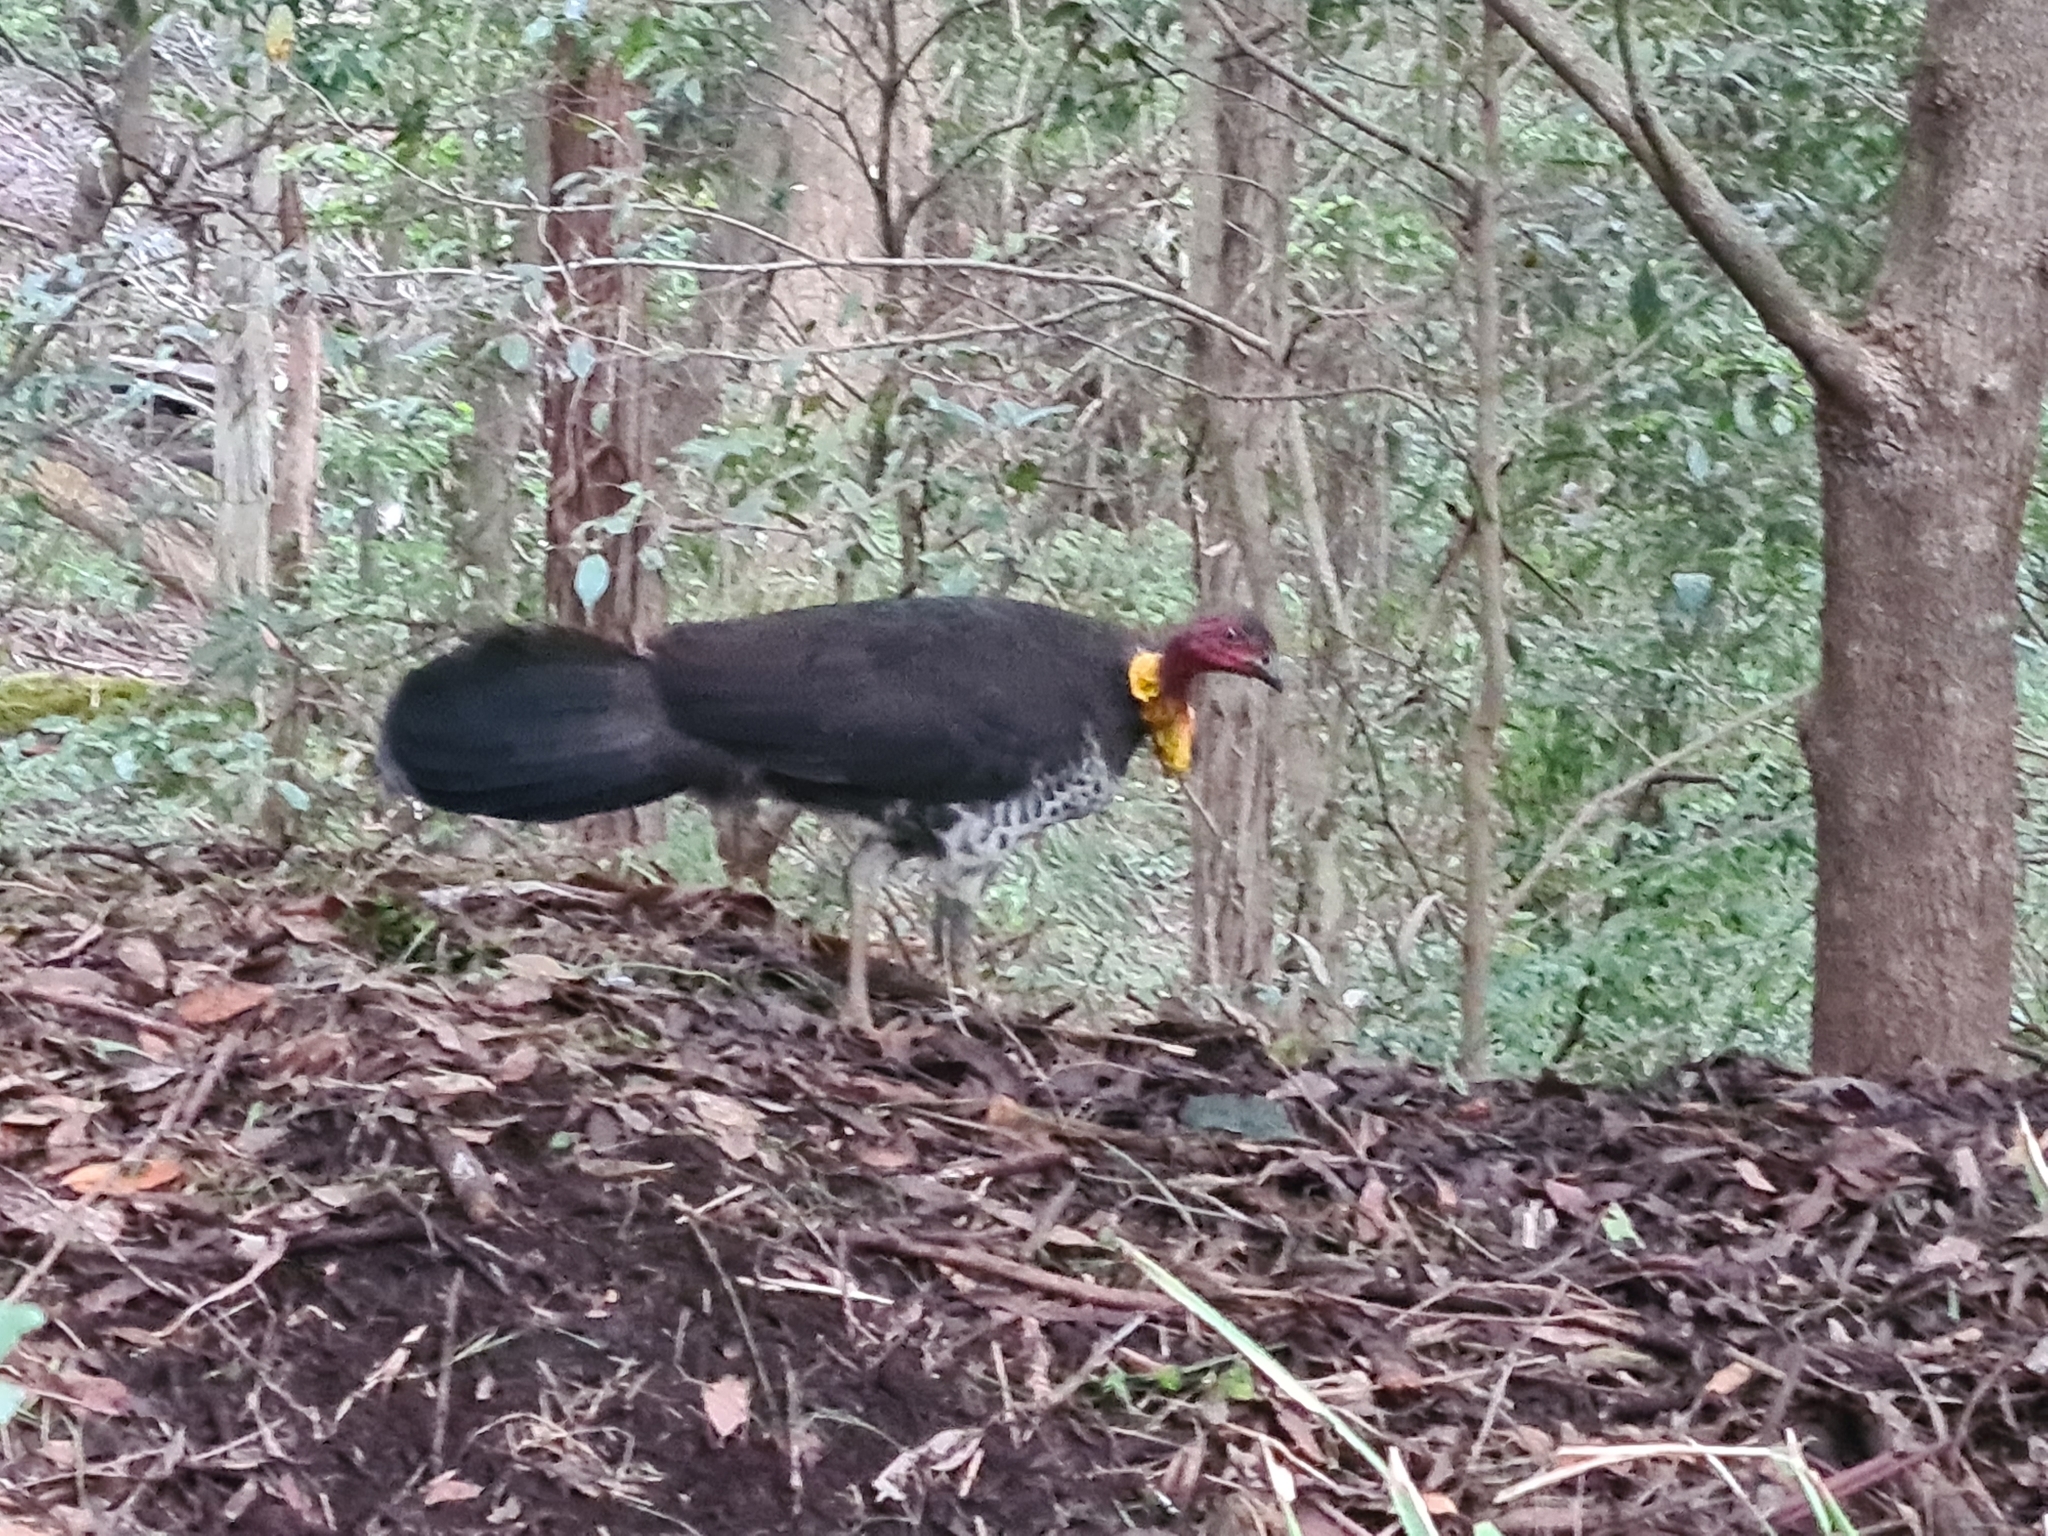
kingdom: Animalia
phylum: Chordata
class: Aves
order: Galliformes
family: Megapodiidae
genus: Alectura
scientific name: Alectura lathami
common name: Australian brushturkey
